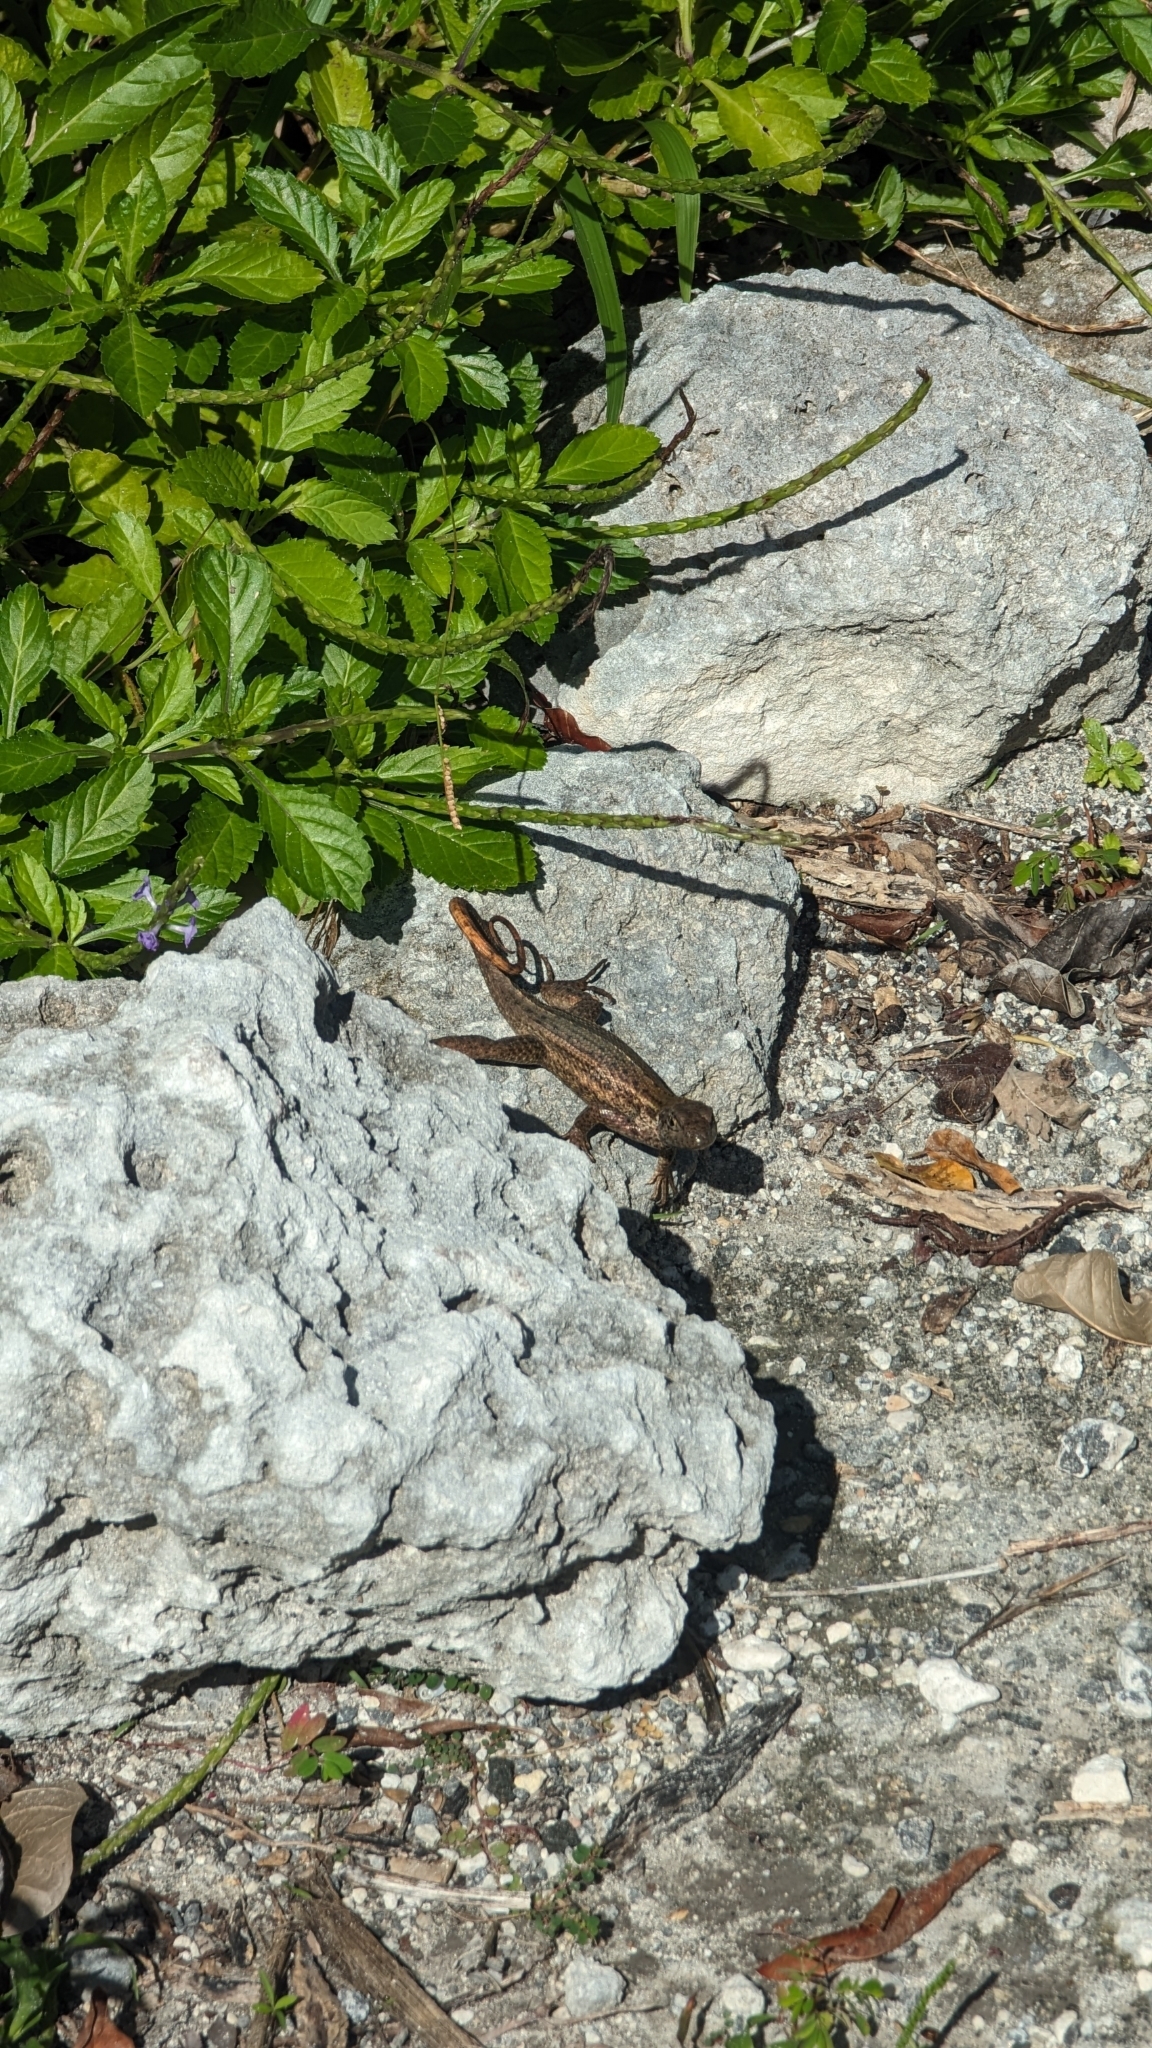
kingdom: Animalia
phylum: Chordata
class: Squamata
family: Leiocephalidae
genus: Leiocephalus
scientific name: Leiocephalus carinatus
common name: Northern curly-tailed lizard
